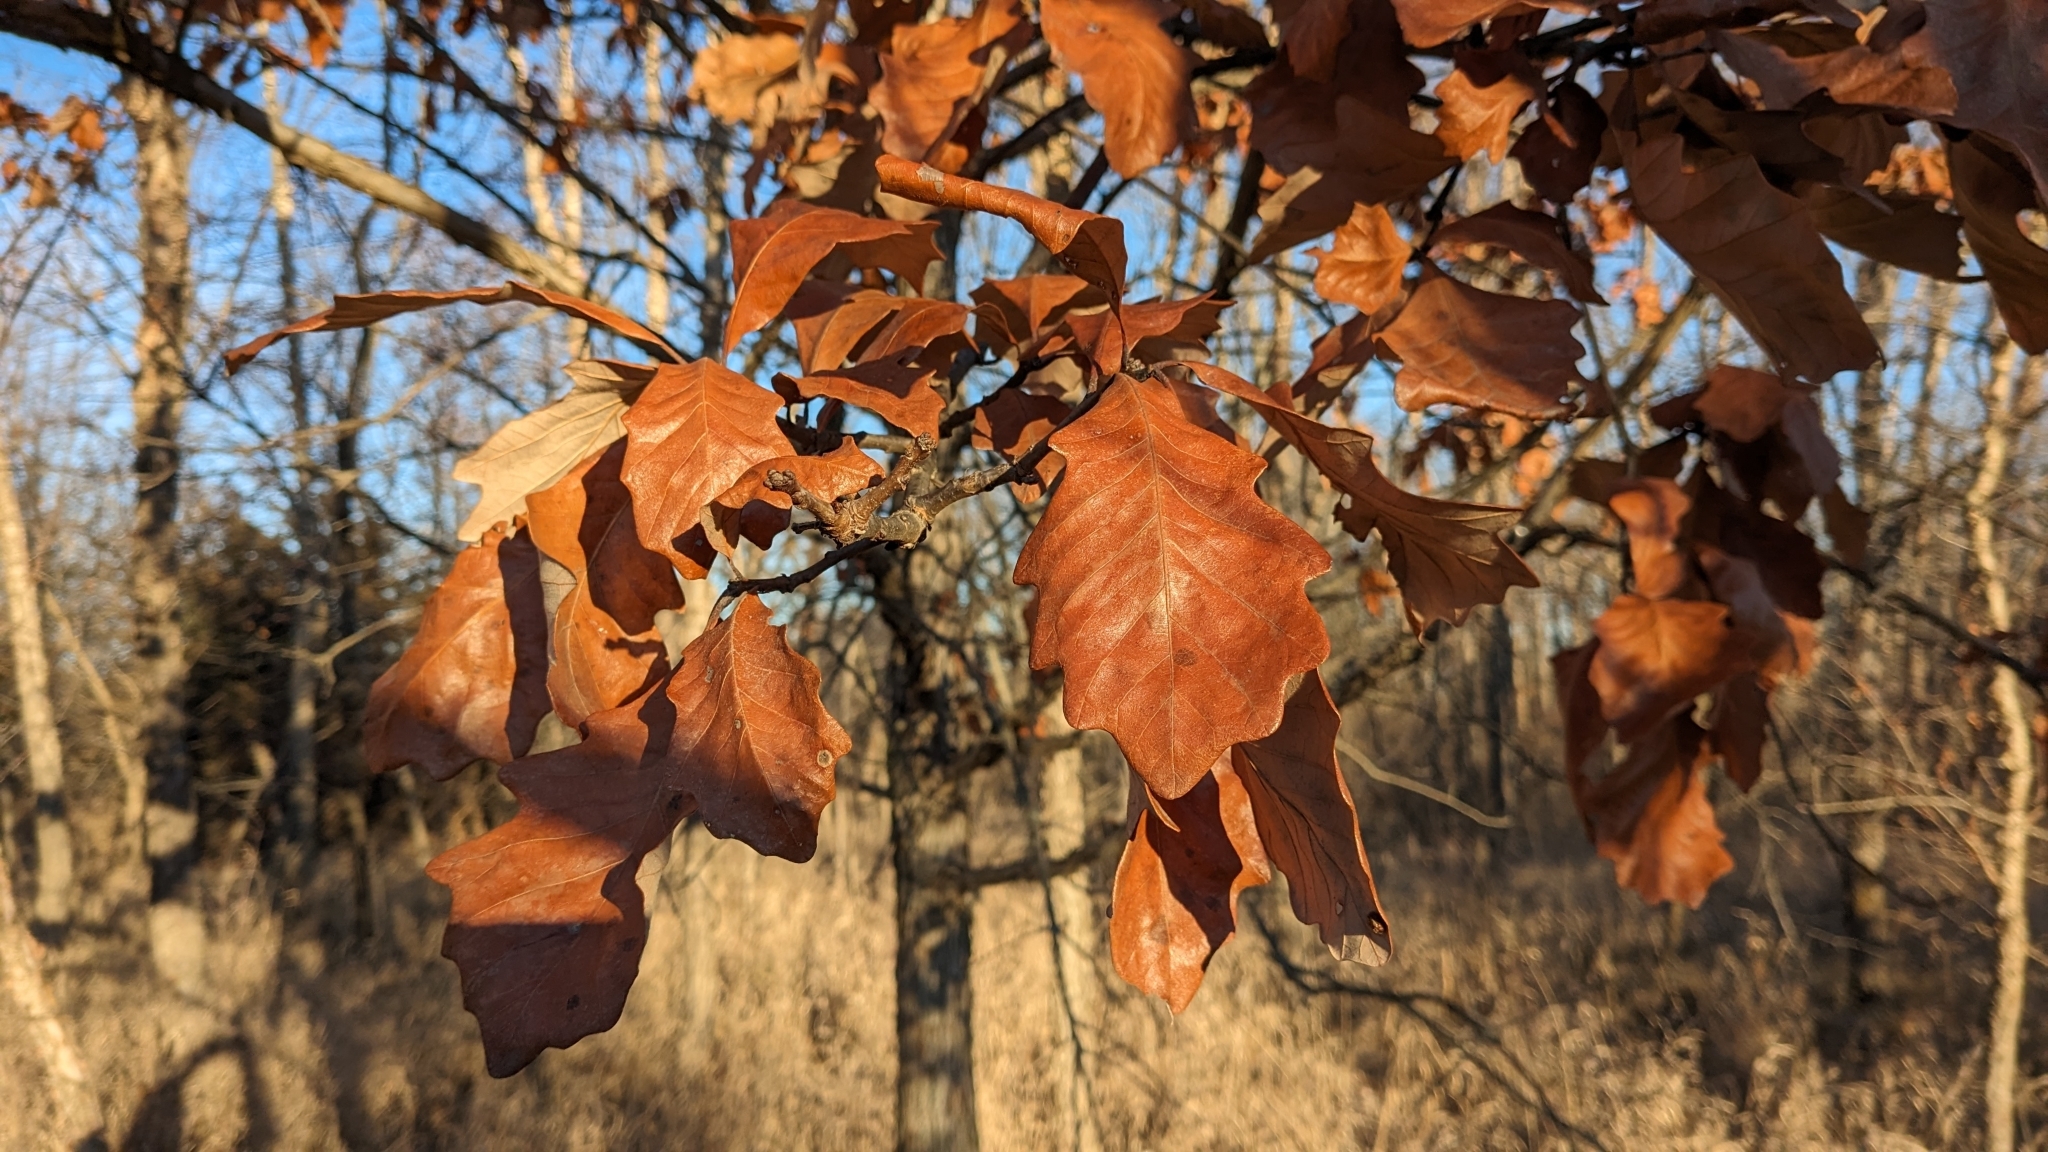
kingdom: Plantae
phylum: Tracheophyta
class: Magnoliopsida
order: Fagales
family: Fagaceae
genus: Quercus
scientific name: Quercus bicolor
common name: Swamp white oak
